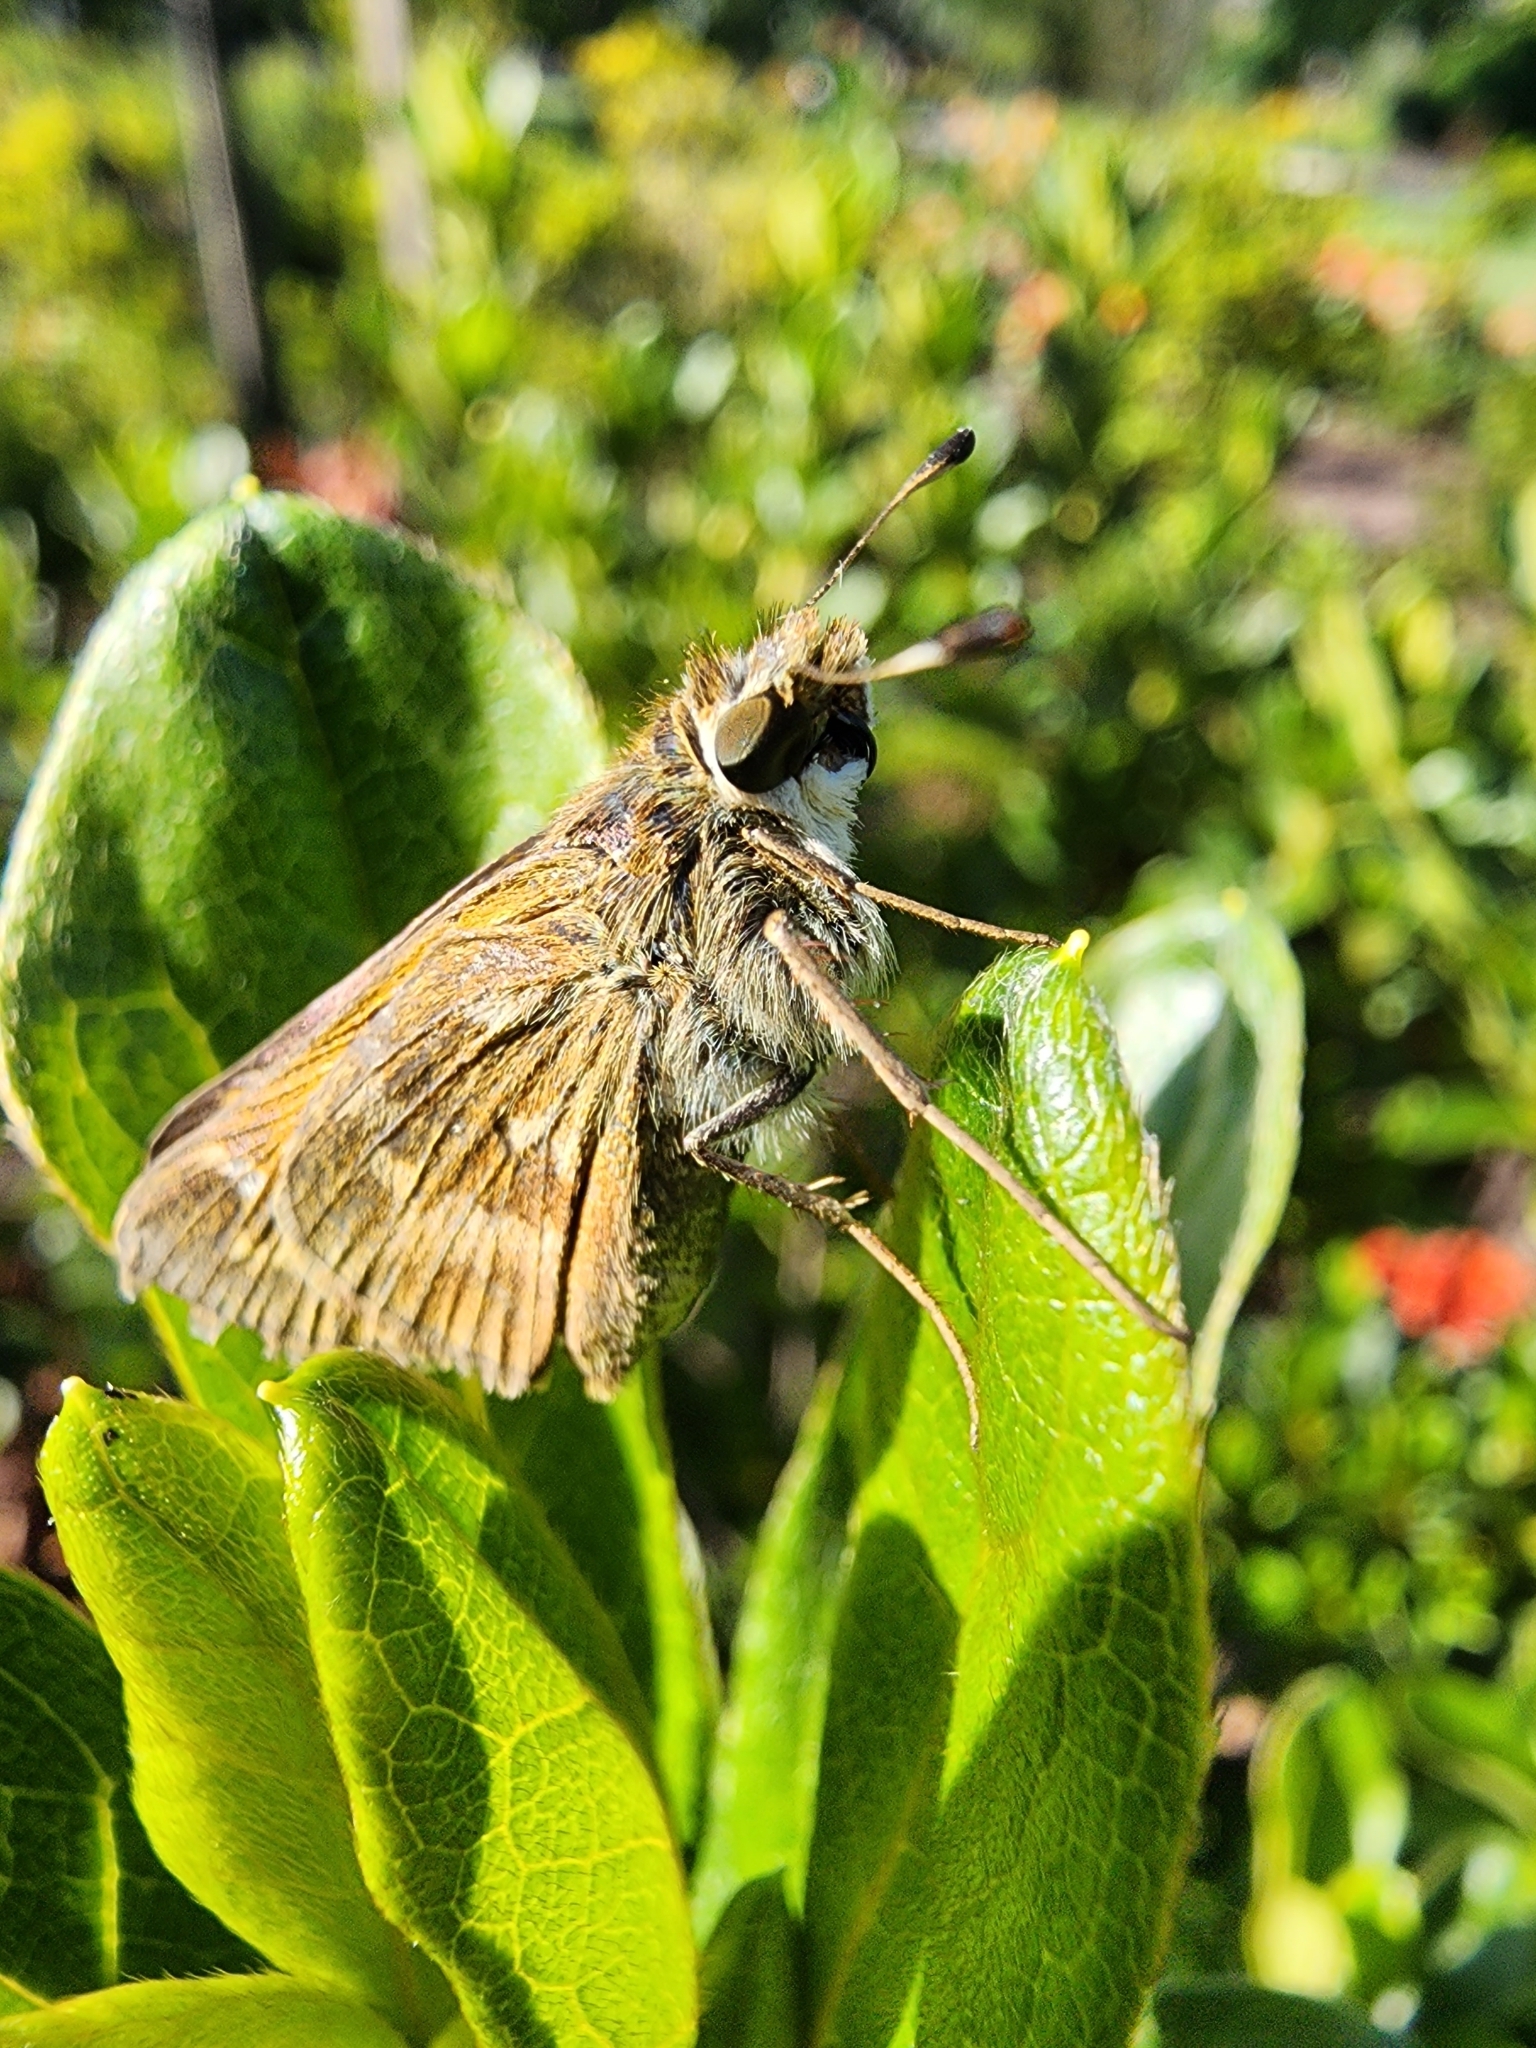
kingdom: Animalia
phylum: Arthropoda
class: Insecta
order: Lepidoptera
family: Hesperiidae
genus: Atalopedes
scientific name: Atalopedes
